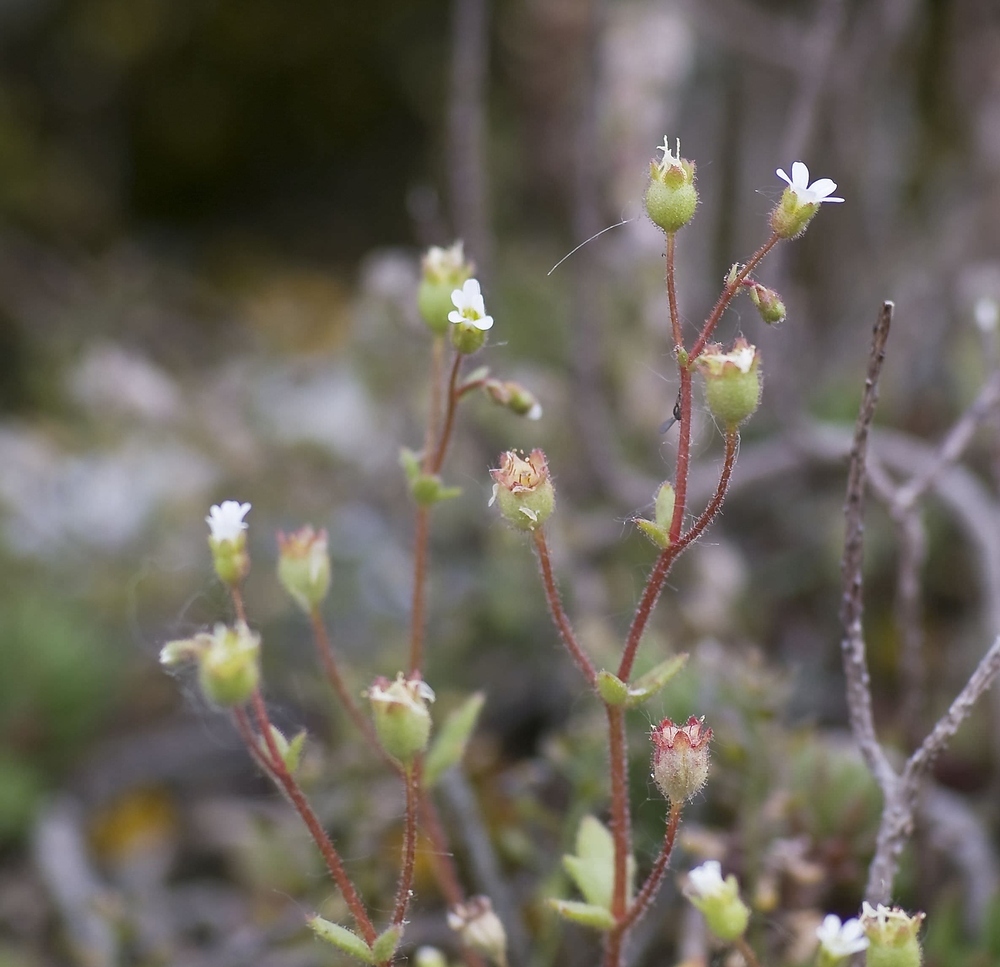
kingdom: Plantae
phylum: Tracheophyta
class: Magnoliopsida
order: Saxifragales
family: Saxifragaceae
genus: Saxifraga
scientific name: Saxifraga tridactylites
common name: Rue-leaved saxifrage
